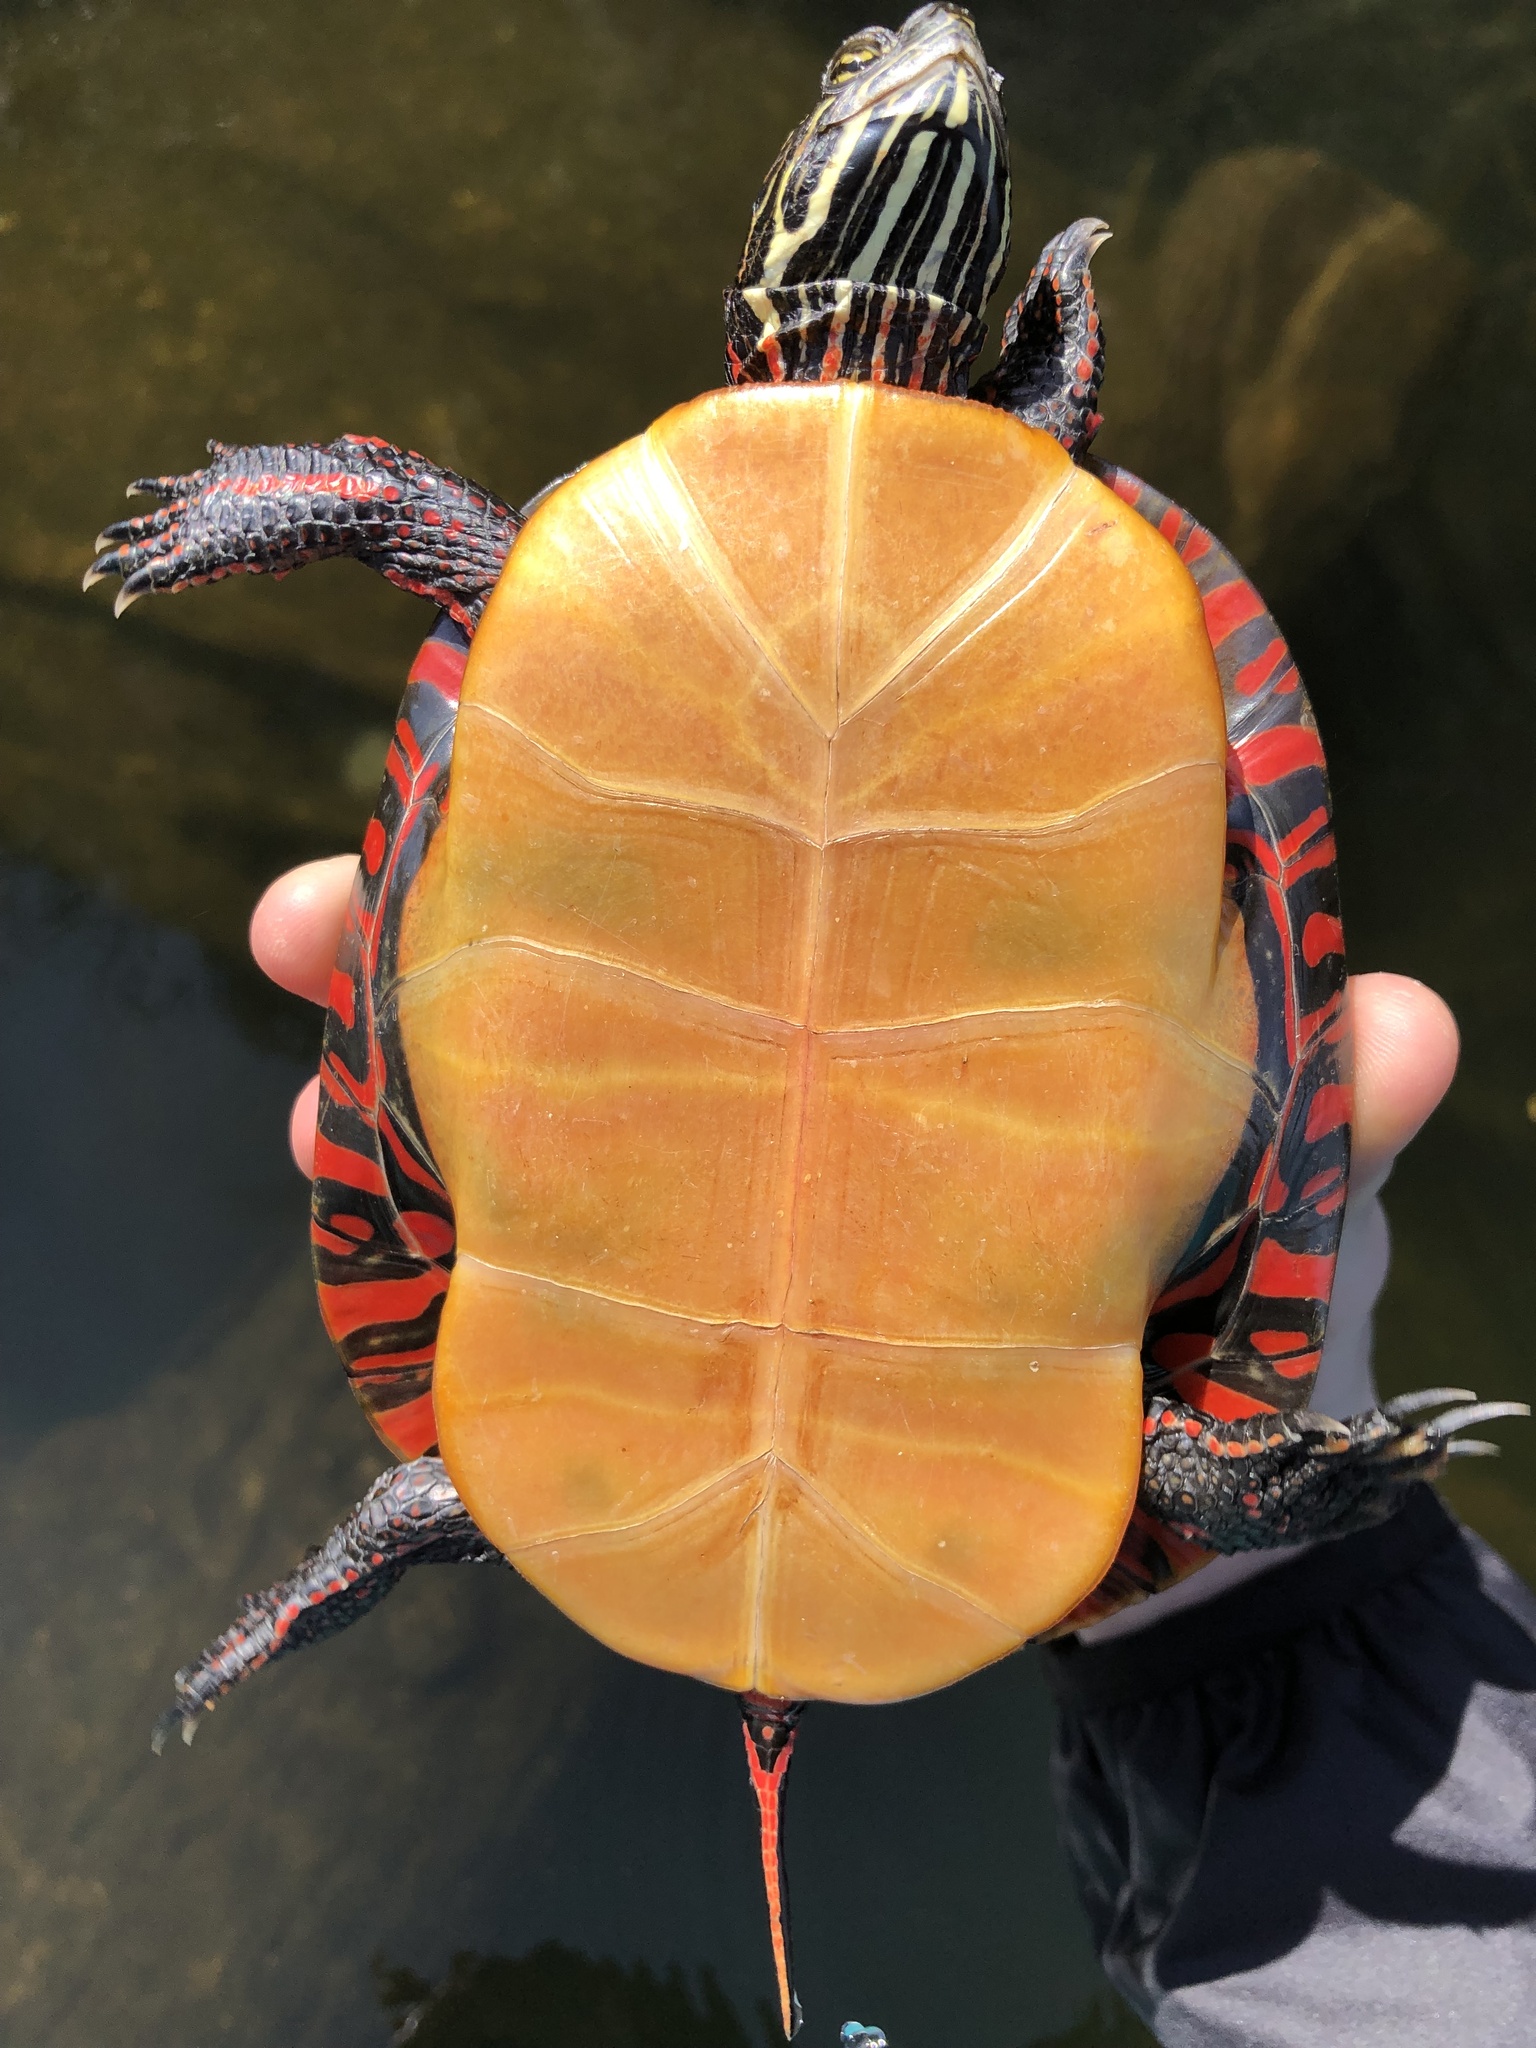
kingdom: Animalia
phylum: Chordata
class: Testudines
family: Emydidae
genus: Chrysemys
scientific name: Chrysemys picta
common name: Painted turtle
